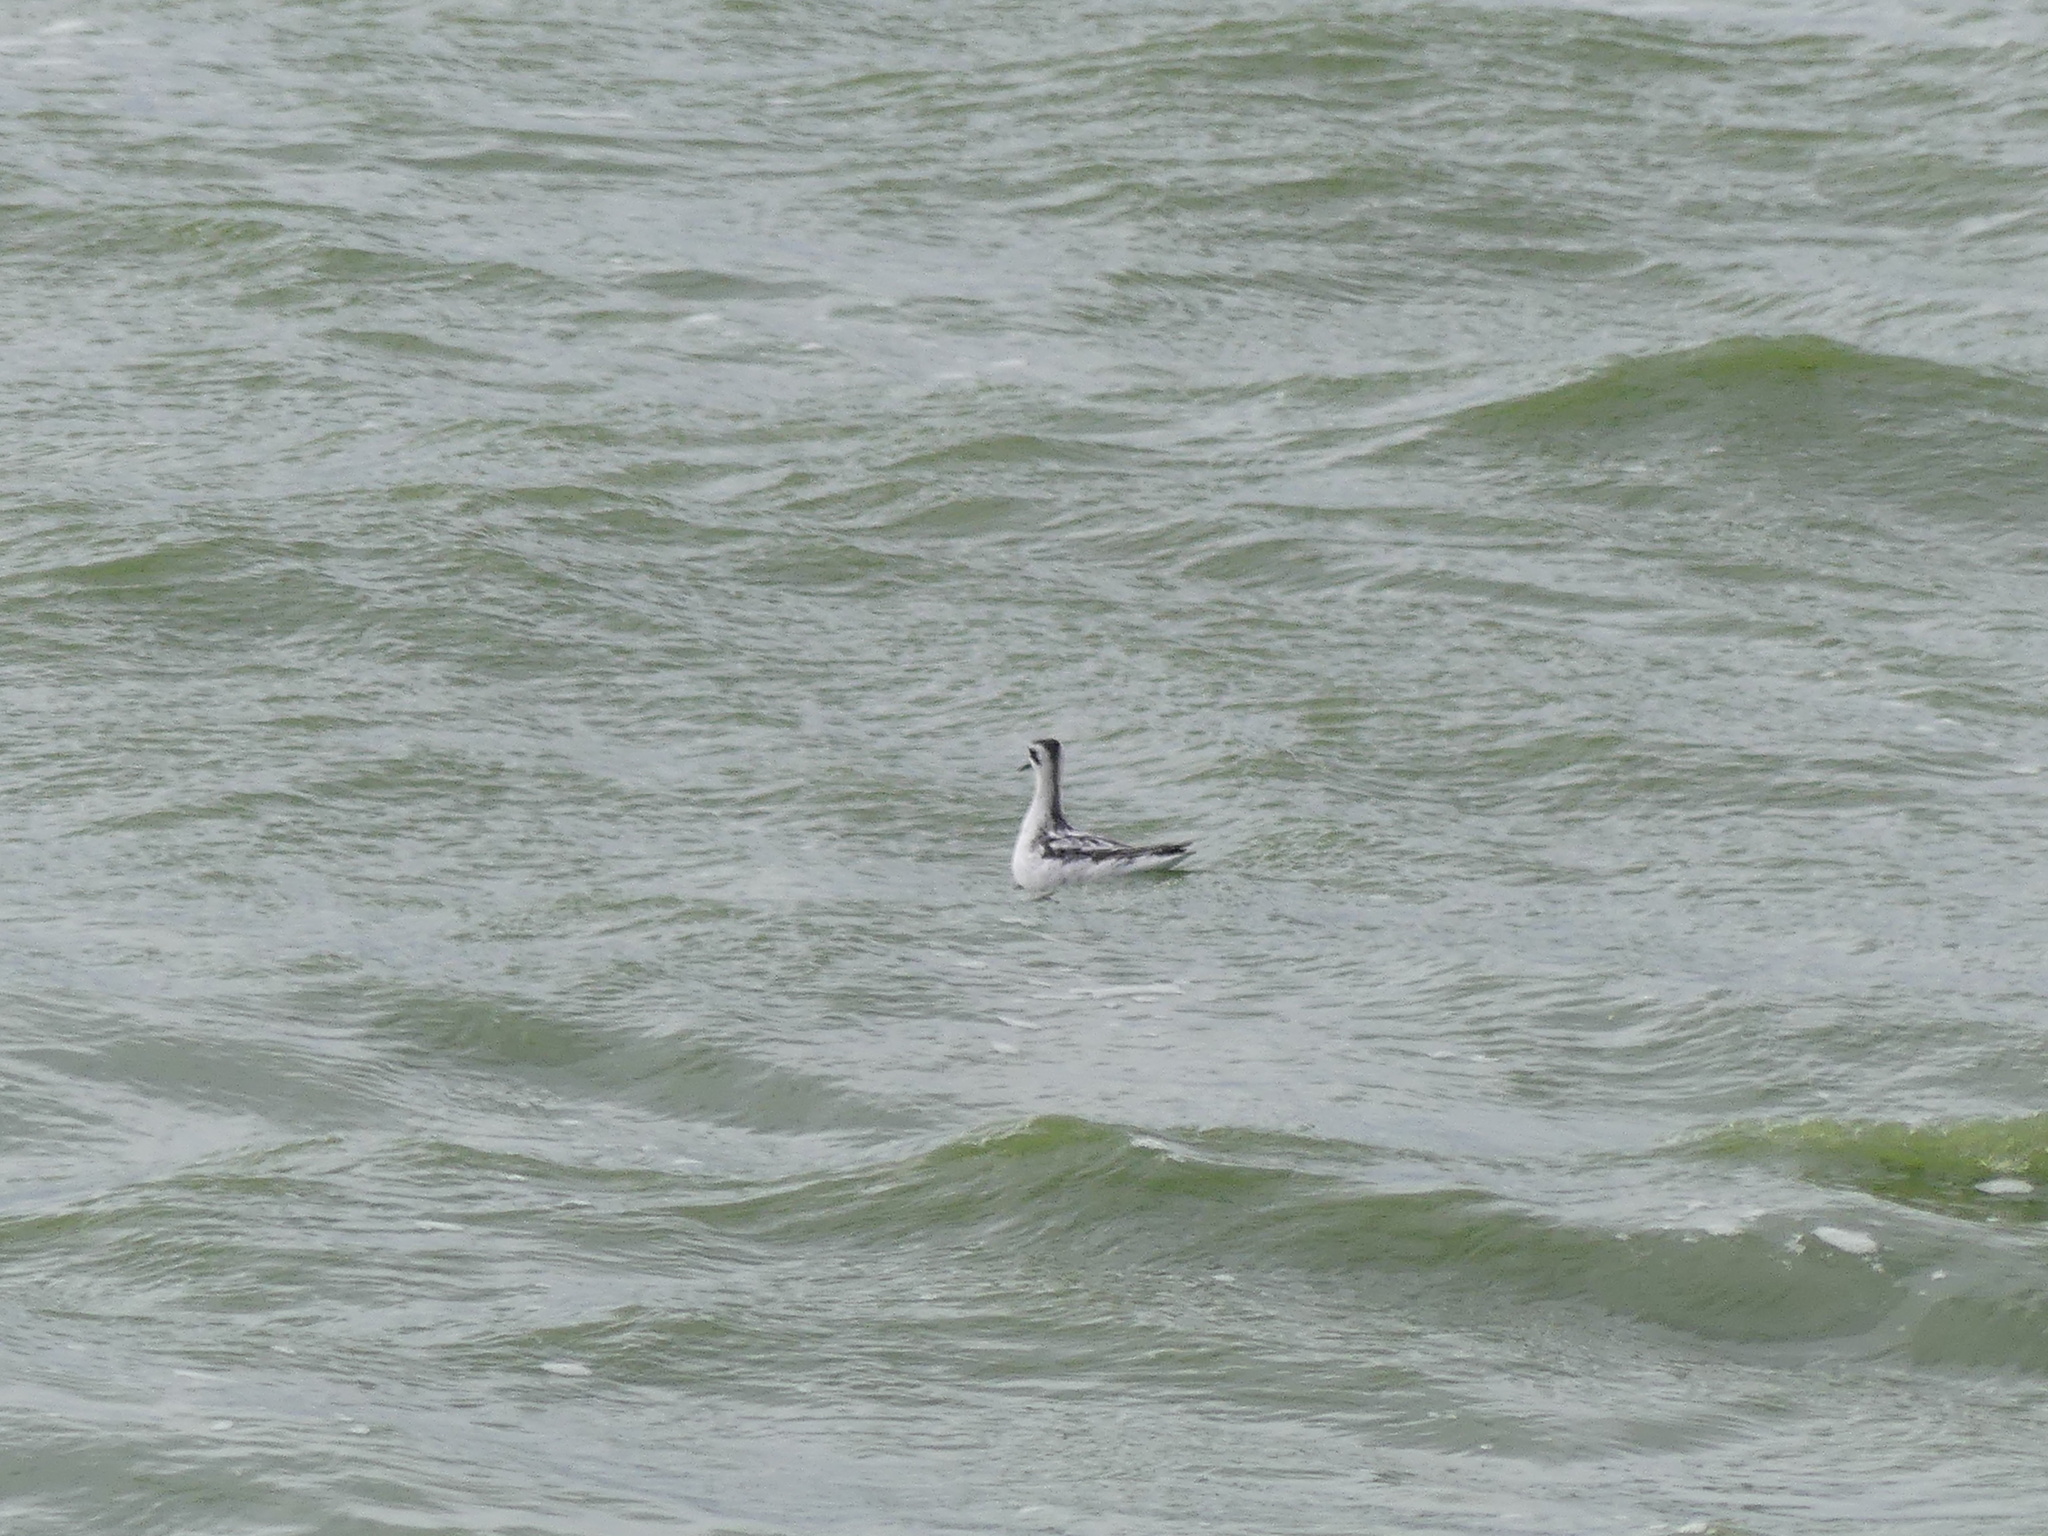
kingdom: Animalia
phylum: Chordata
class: Aves
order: Charadriiformes
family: Scolopacidae
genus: Phalaropus
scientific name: Phalaropus lobatus
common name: Red-necked phalarope
